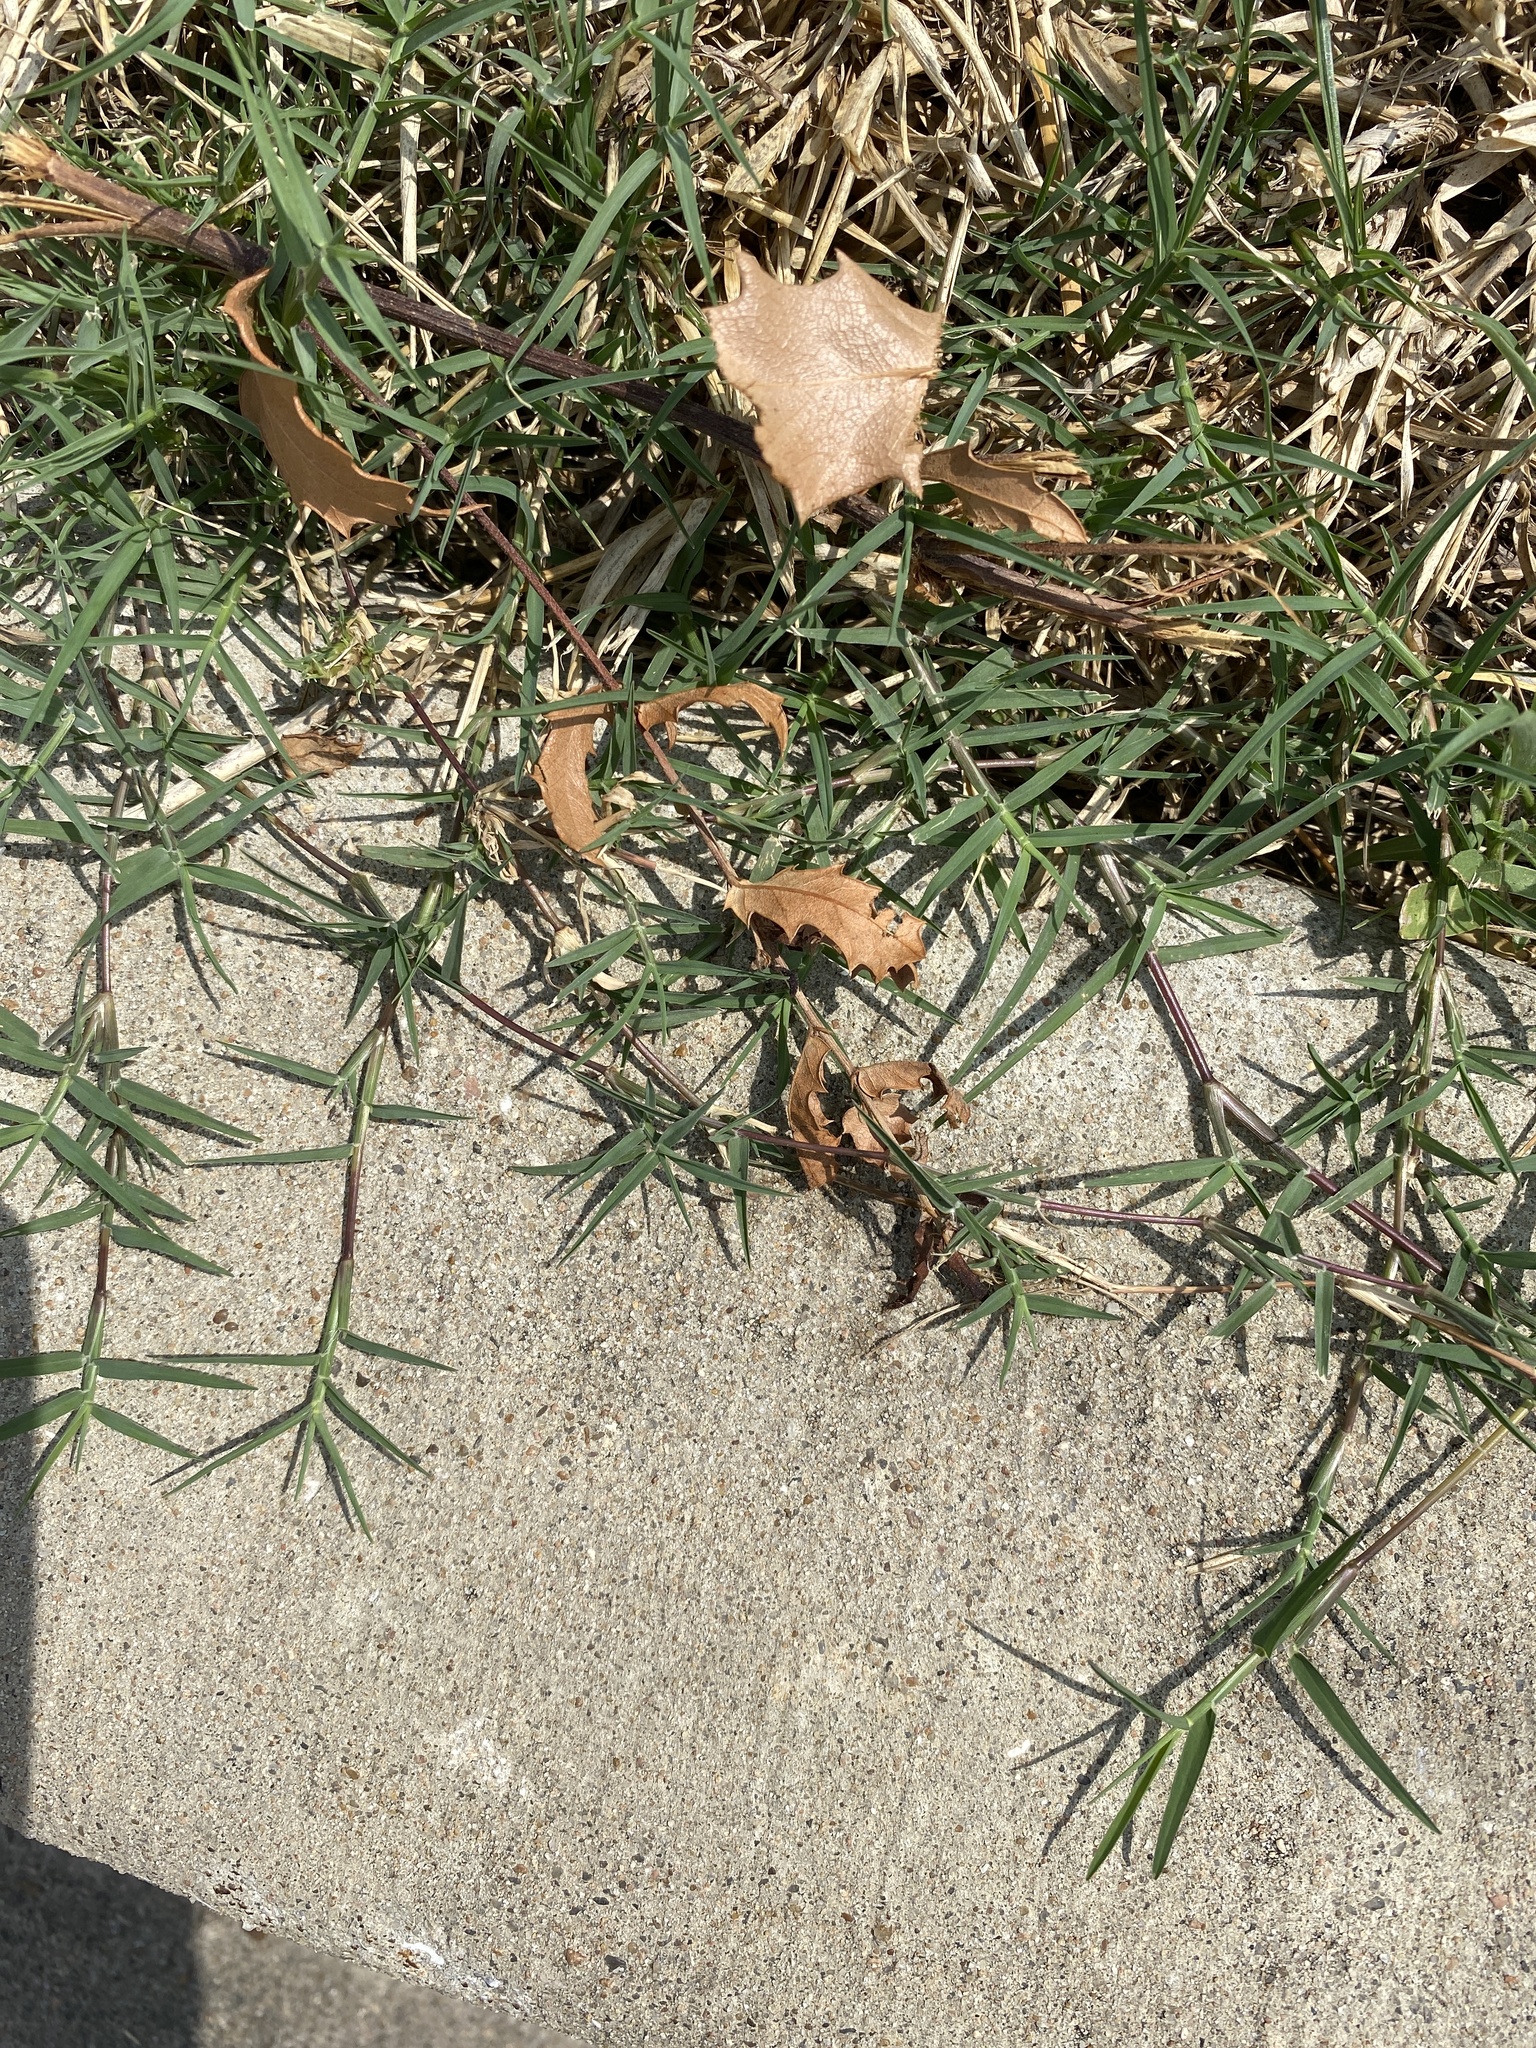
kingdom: Plantae
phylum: Tracheophyta
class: Liliopsida
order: Poales
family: Poaceae
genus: Cynodon
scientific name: Cynodon dactylon
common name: Bermuda grass
